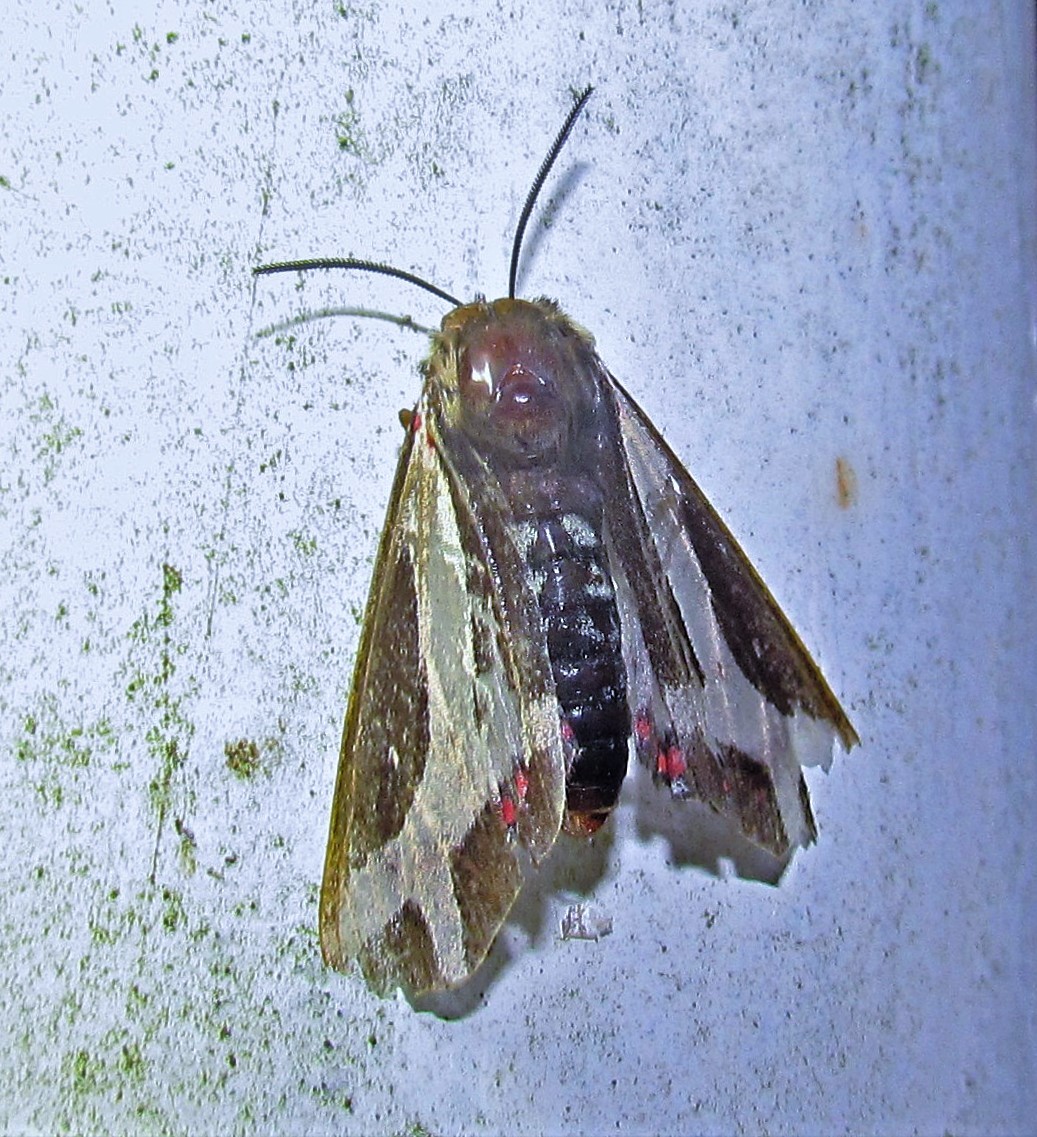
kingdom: Animalia
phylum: Arthropoda
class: Insecta
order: Lepidoptera
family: Erebidae
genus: Dysschema
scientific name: Dysschema sacrifica
